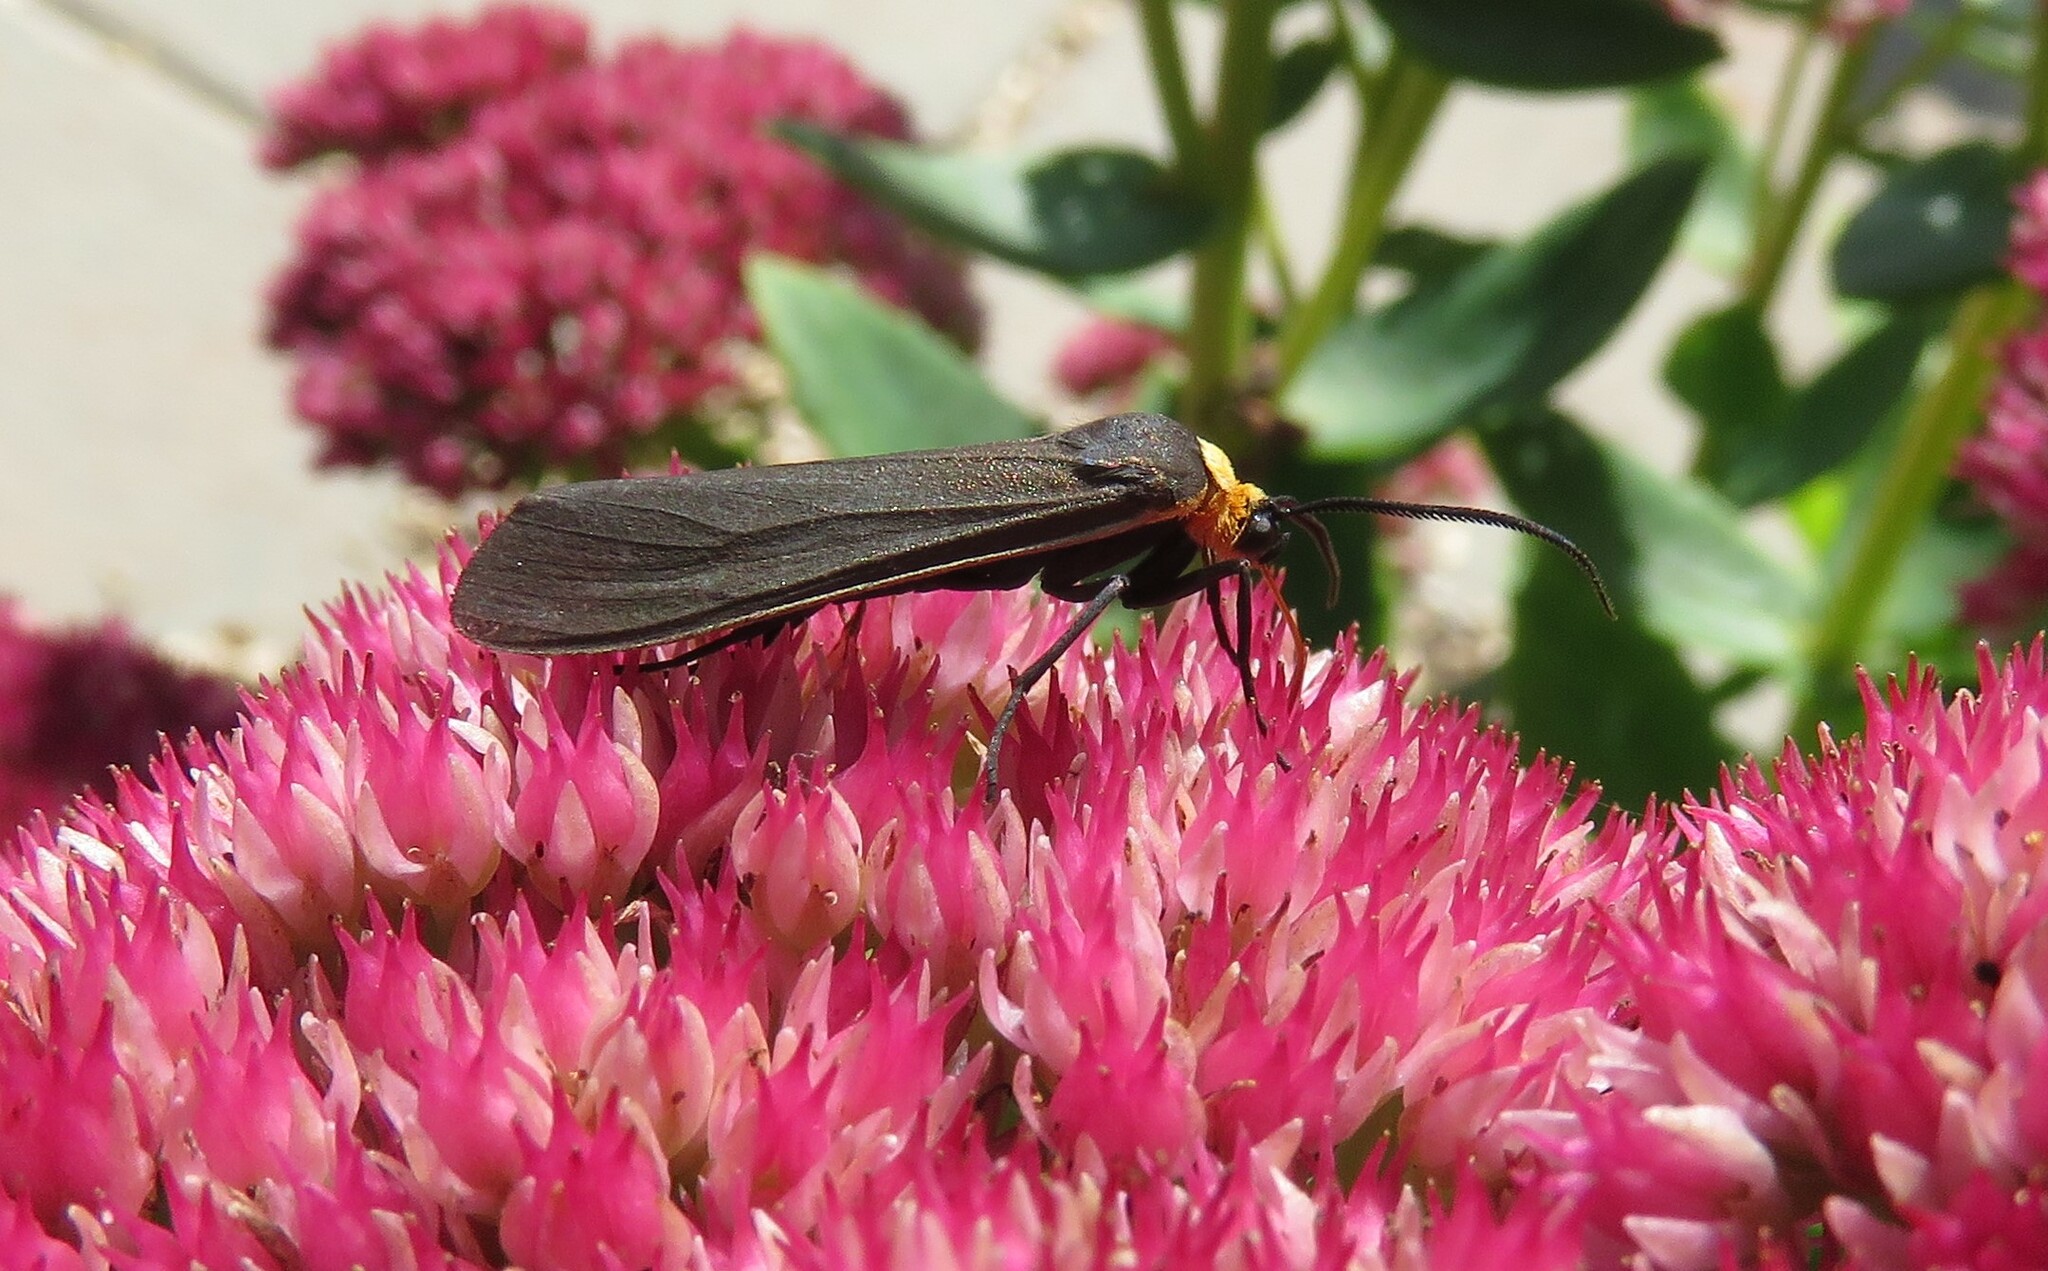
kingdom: Animalia
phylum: Arthropoda
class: Insecta
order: Lepidoptera
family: Erebidae
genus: Cisseps
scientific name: Cisseps fulvicollis
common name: Yellow-collared scape moth
